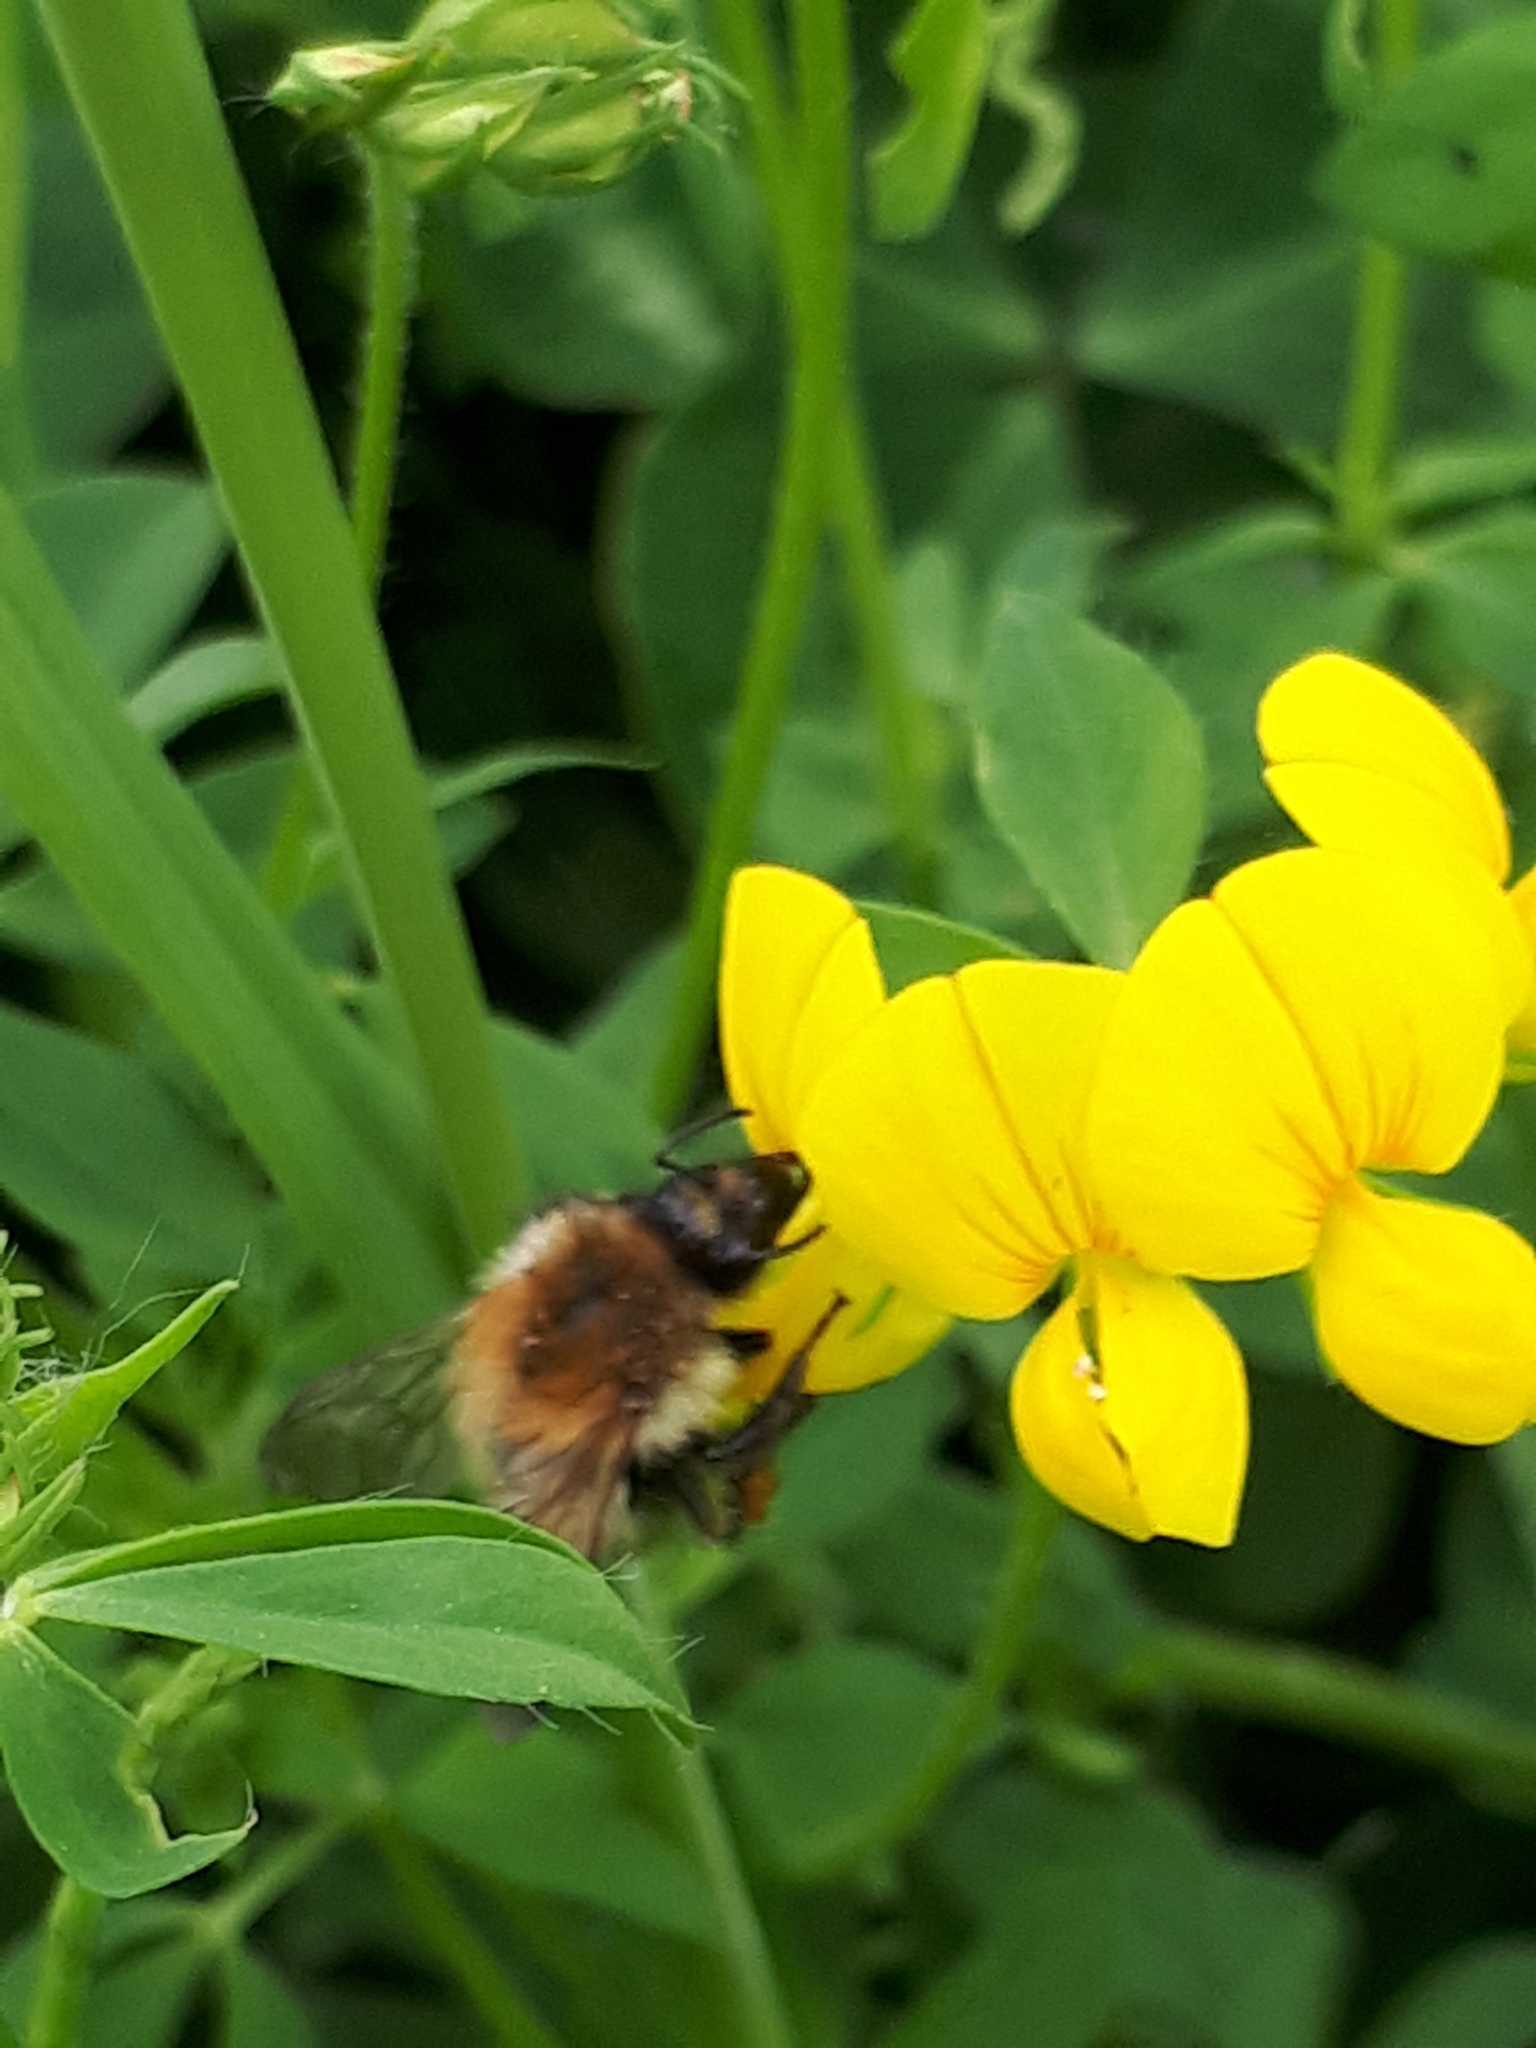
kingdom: Animalia
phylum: Arthropoda
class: Insecta
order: Hymenoptera
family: Apidae
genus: Bombus
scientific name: Bombus pascuorum
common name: Common carder bee
